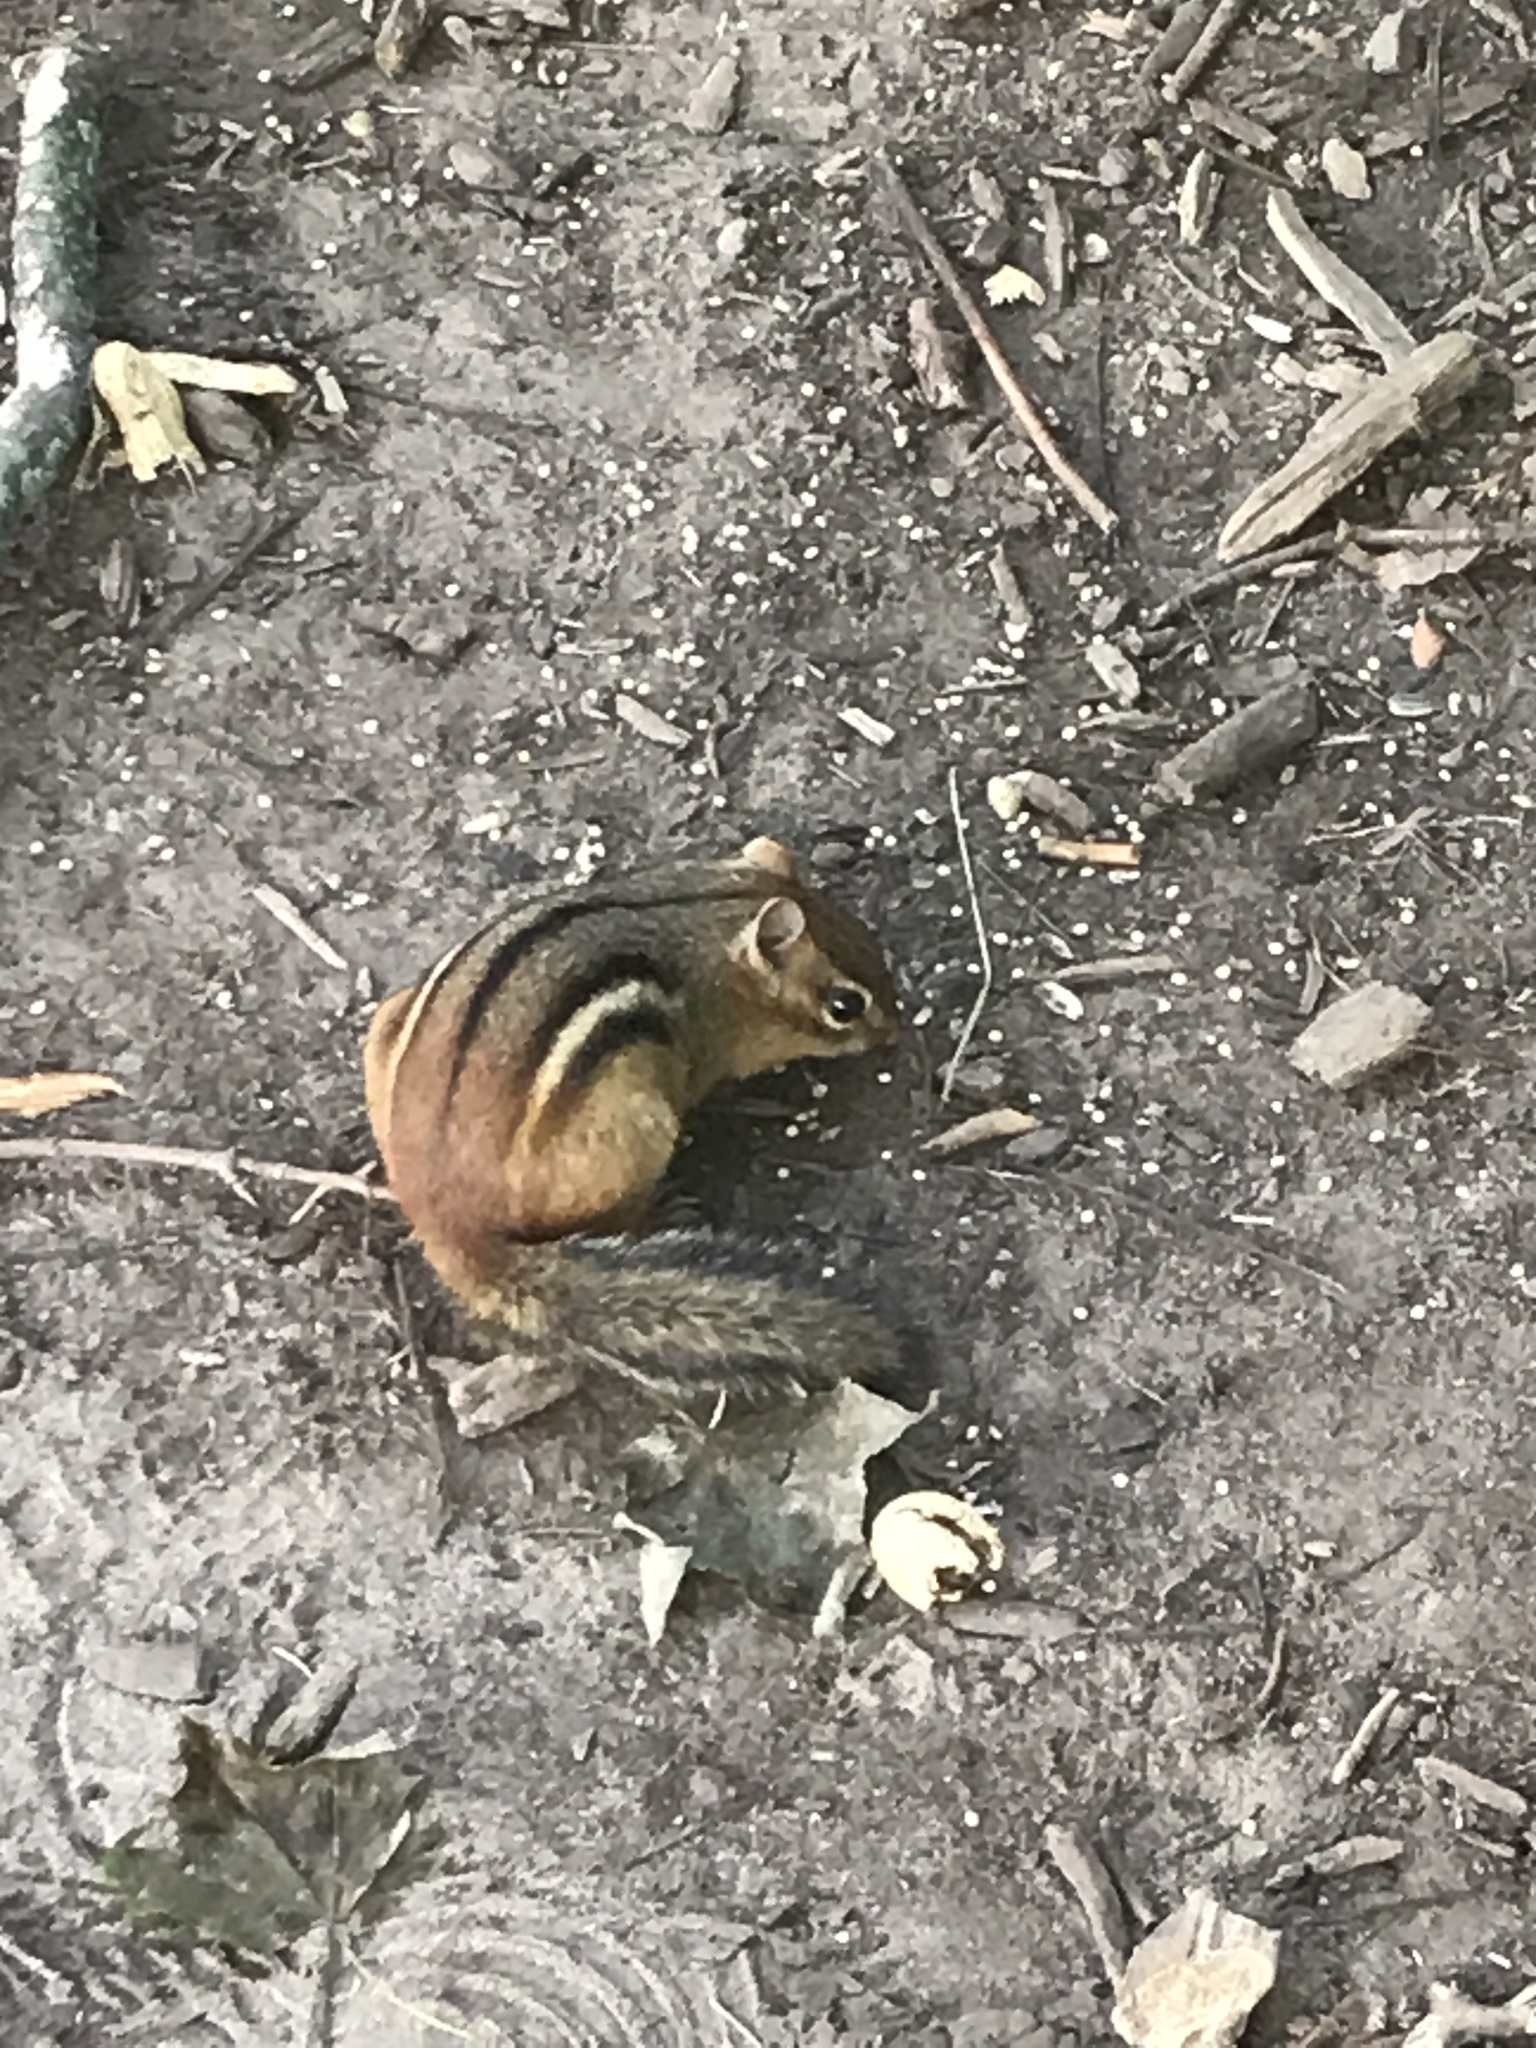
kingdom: Animalia
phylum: Chordata
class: Mammalia
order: Rodentia
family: Sciuridae
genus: Tamias
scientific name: Tamias striatus
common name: Eastern chipmunk
